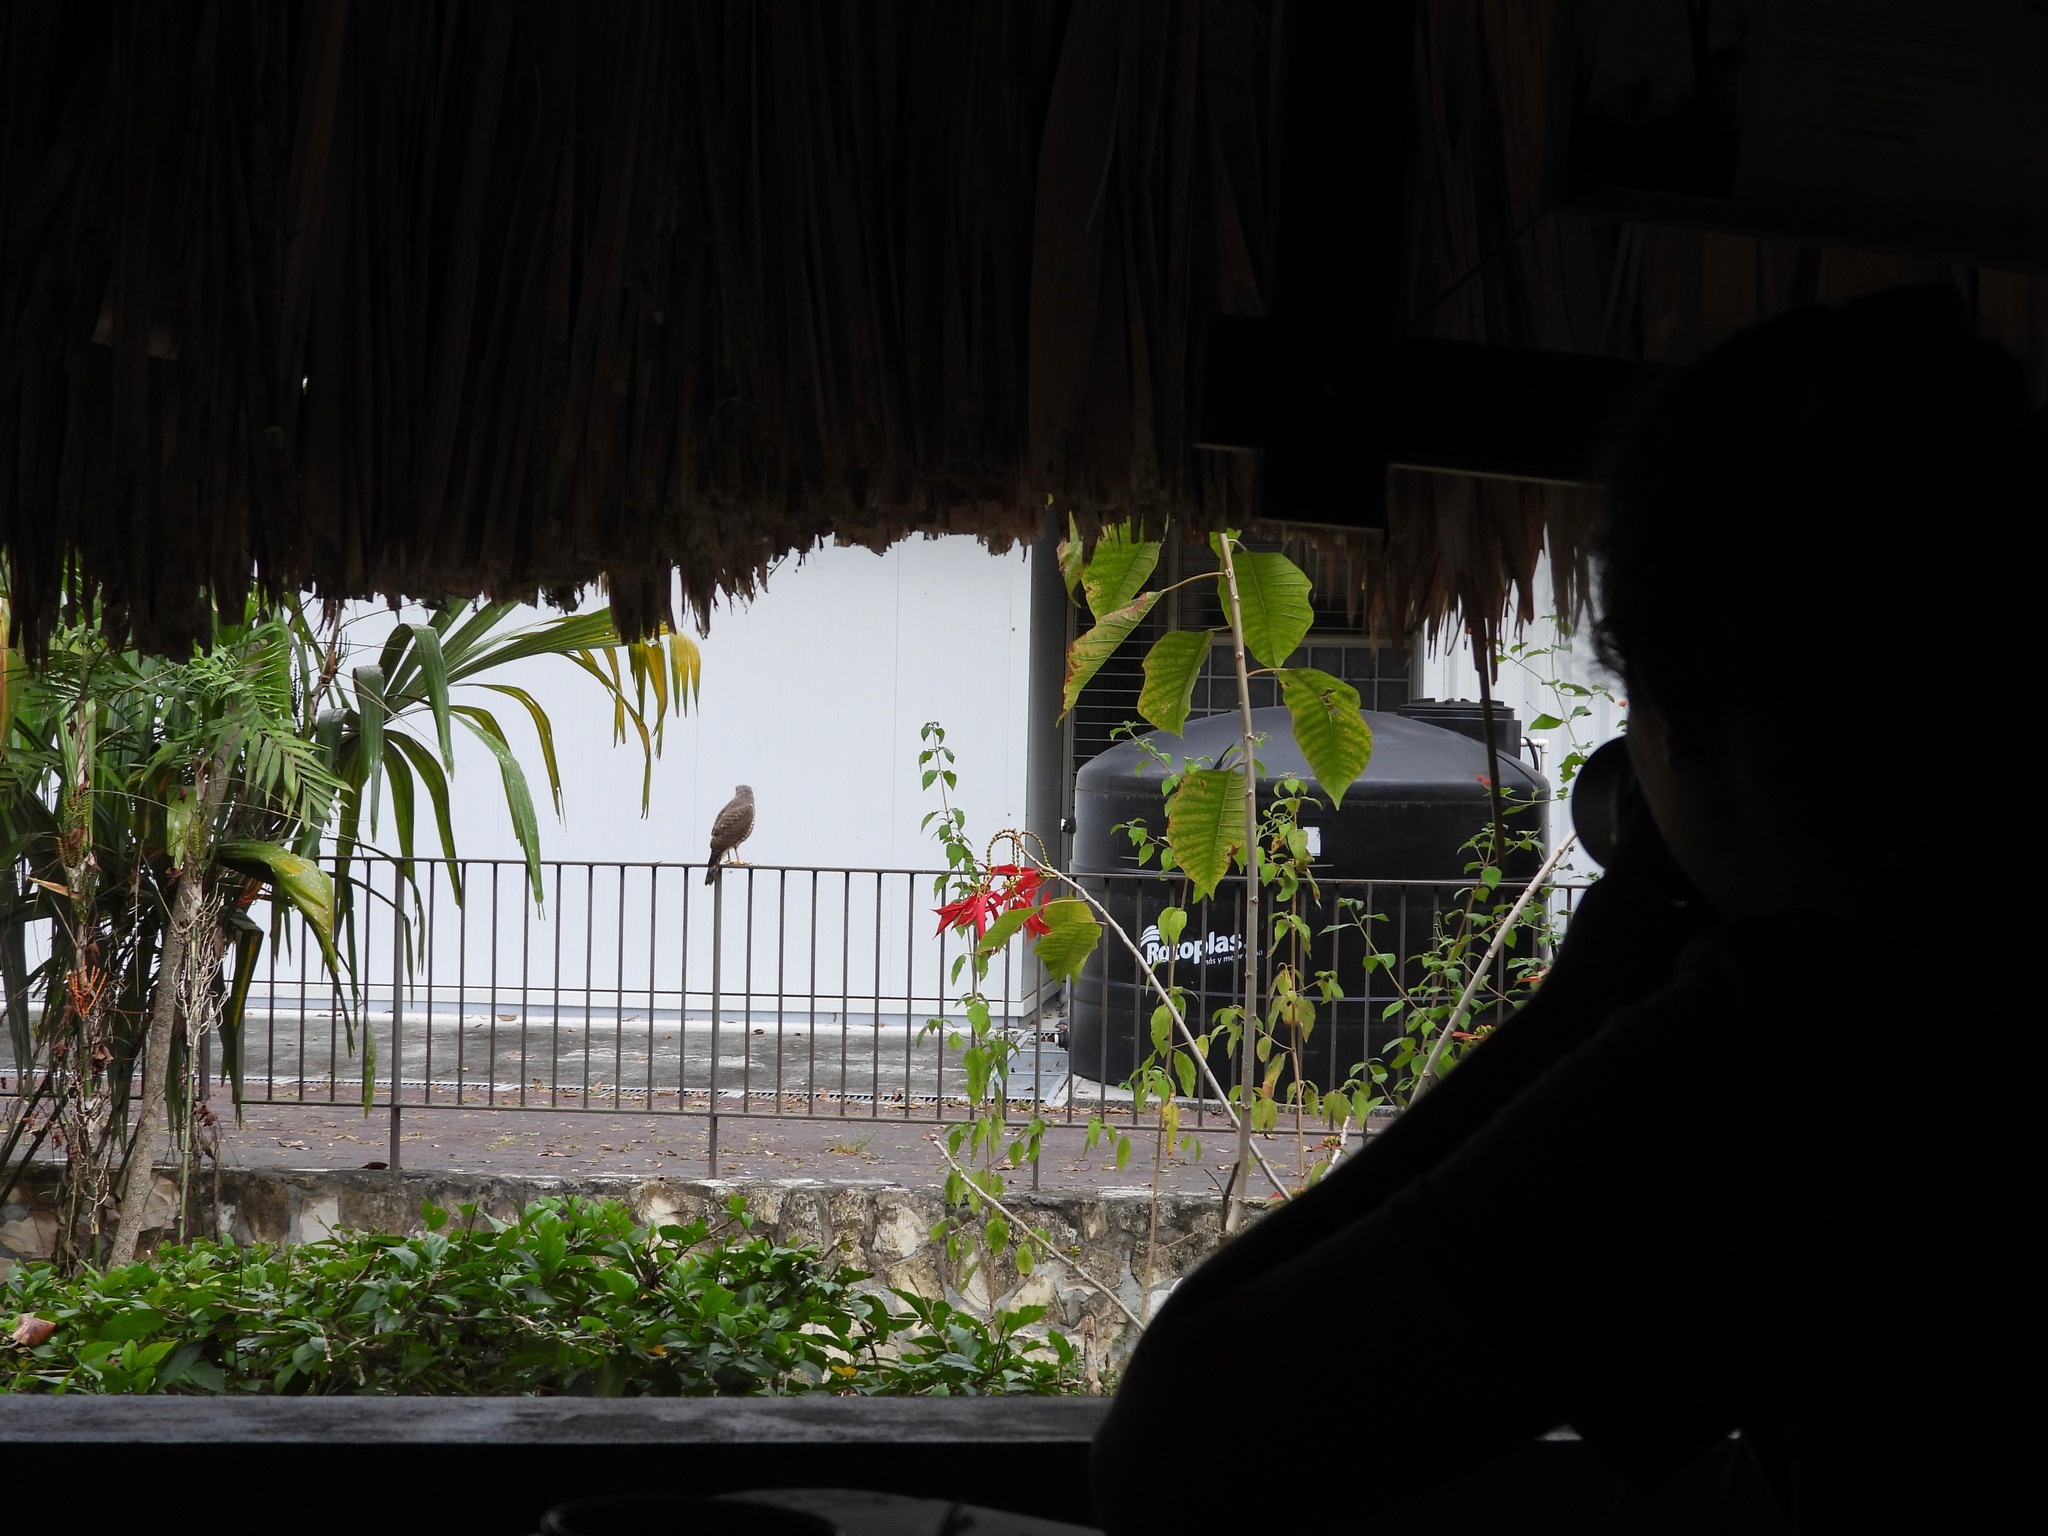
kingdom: Animalia
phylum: Chordata
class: Aves
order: Accipitriformes
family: Accipitridae
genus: Rupornis
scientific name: Rupornis magnirostris
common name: Roadside hawk
